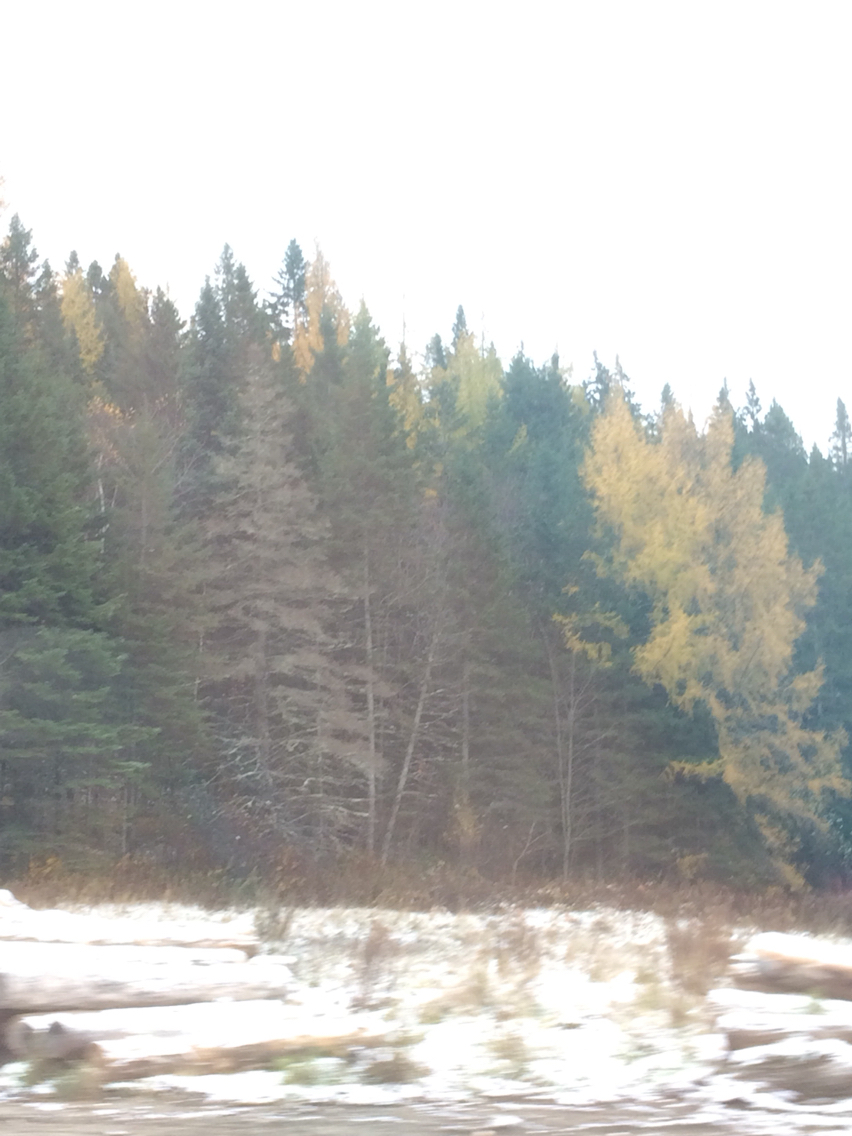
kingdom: Plantae
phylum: Tracheophyta
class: Pinopsida
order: Pinales
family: Pinaceae
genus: Larix
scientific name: Larix laricina
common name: American larch
